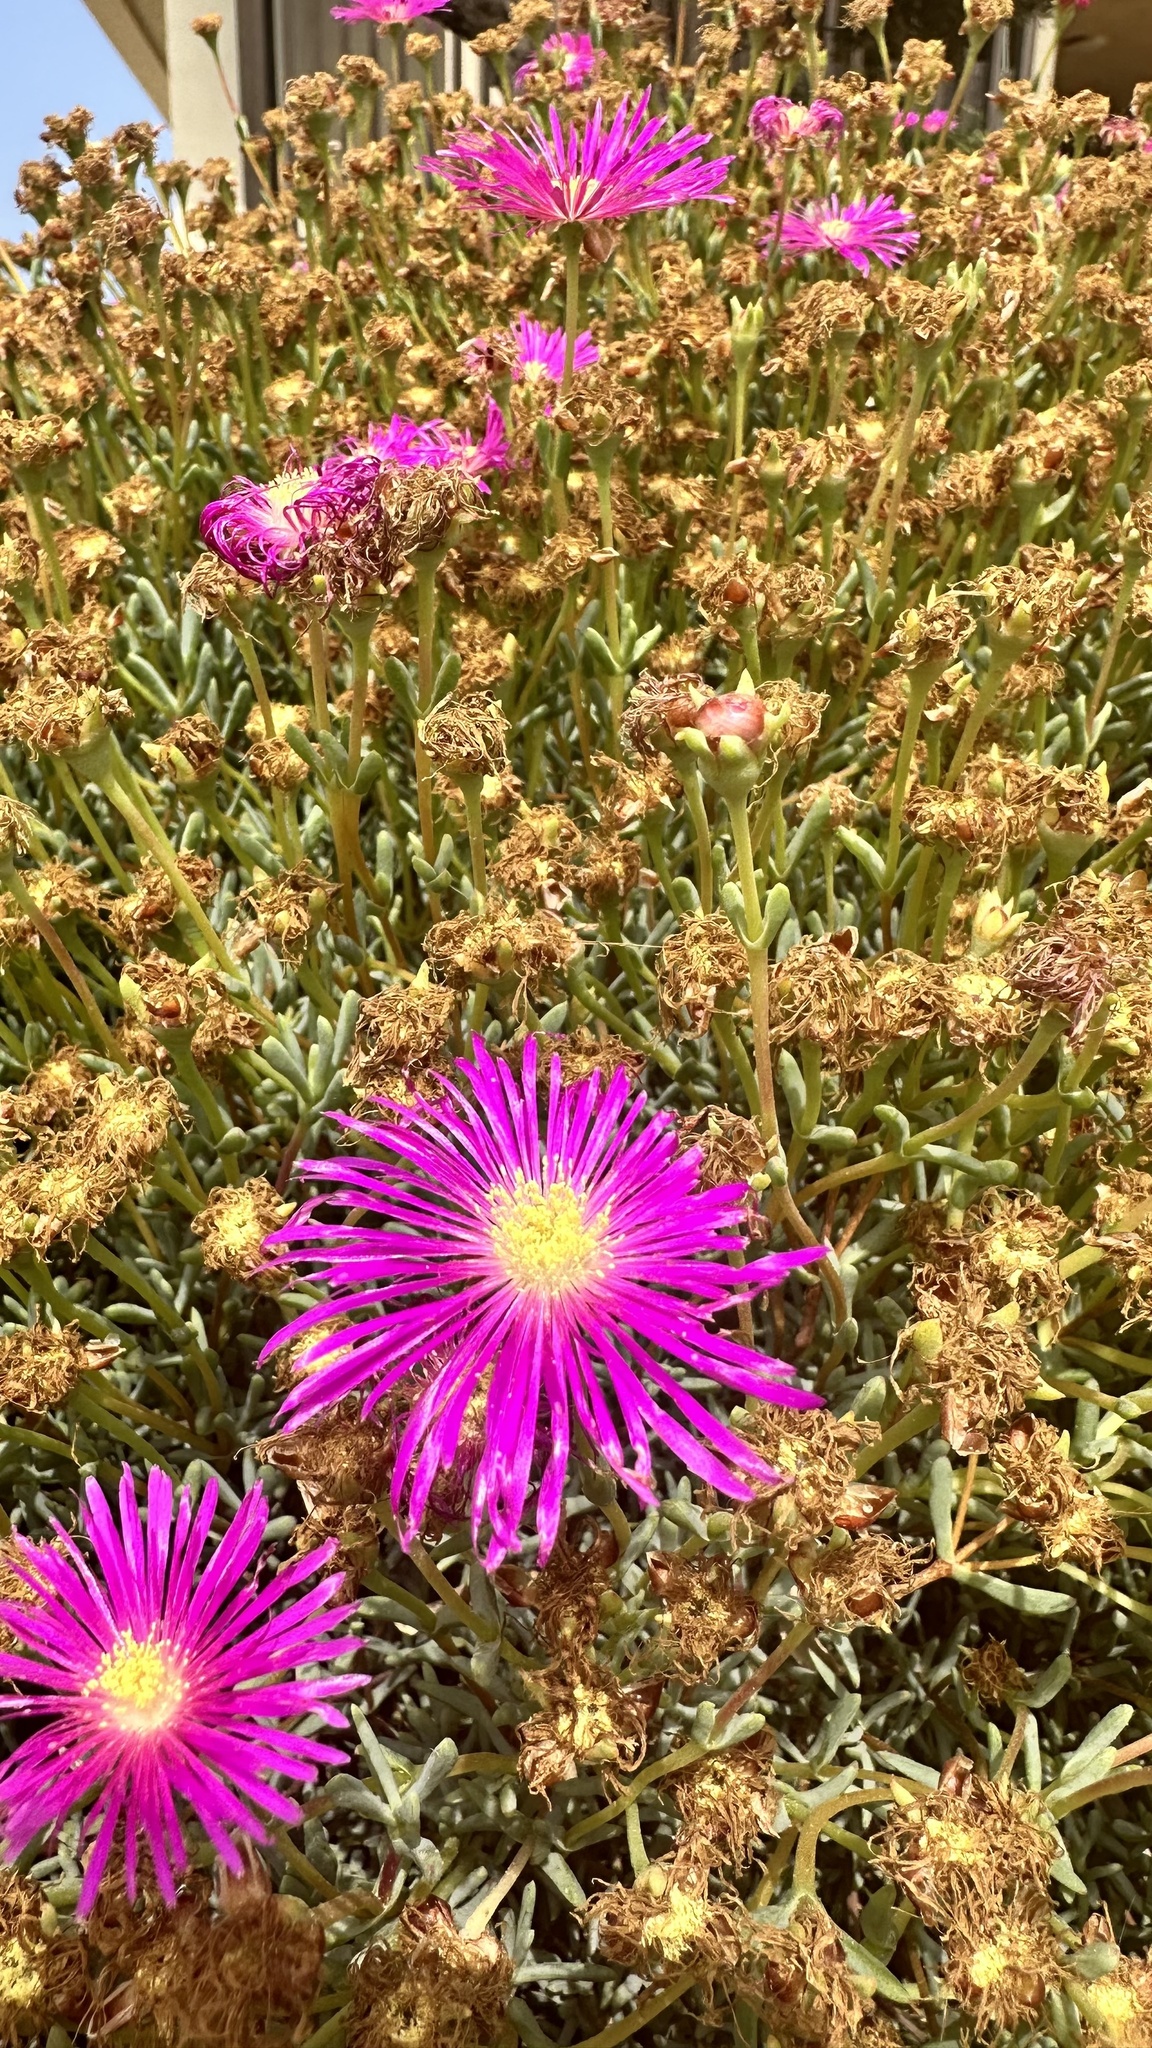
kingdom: Plantae
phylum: Tracheophyta
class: Magnoliopsida
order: Caryophyllales
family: Aizoaceae
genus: Carpobrotus
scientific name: Carpobrotus acinaciformis
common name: Sally-my-handsome
